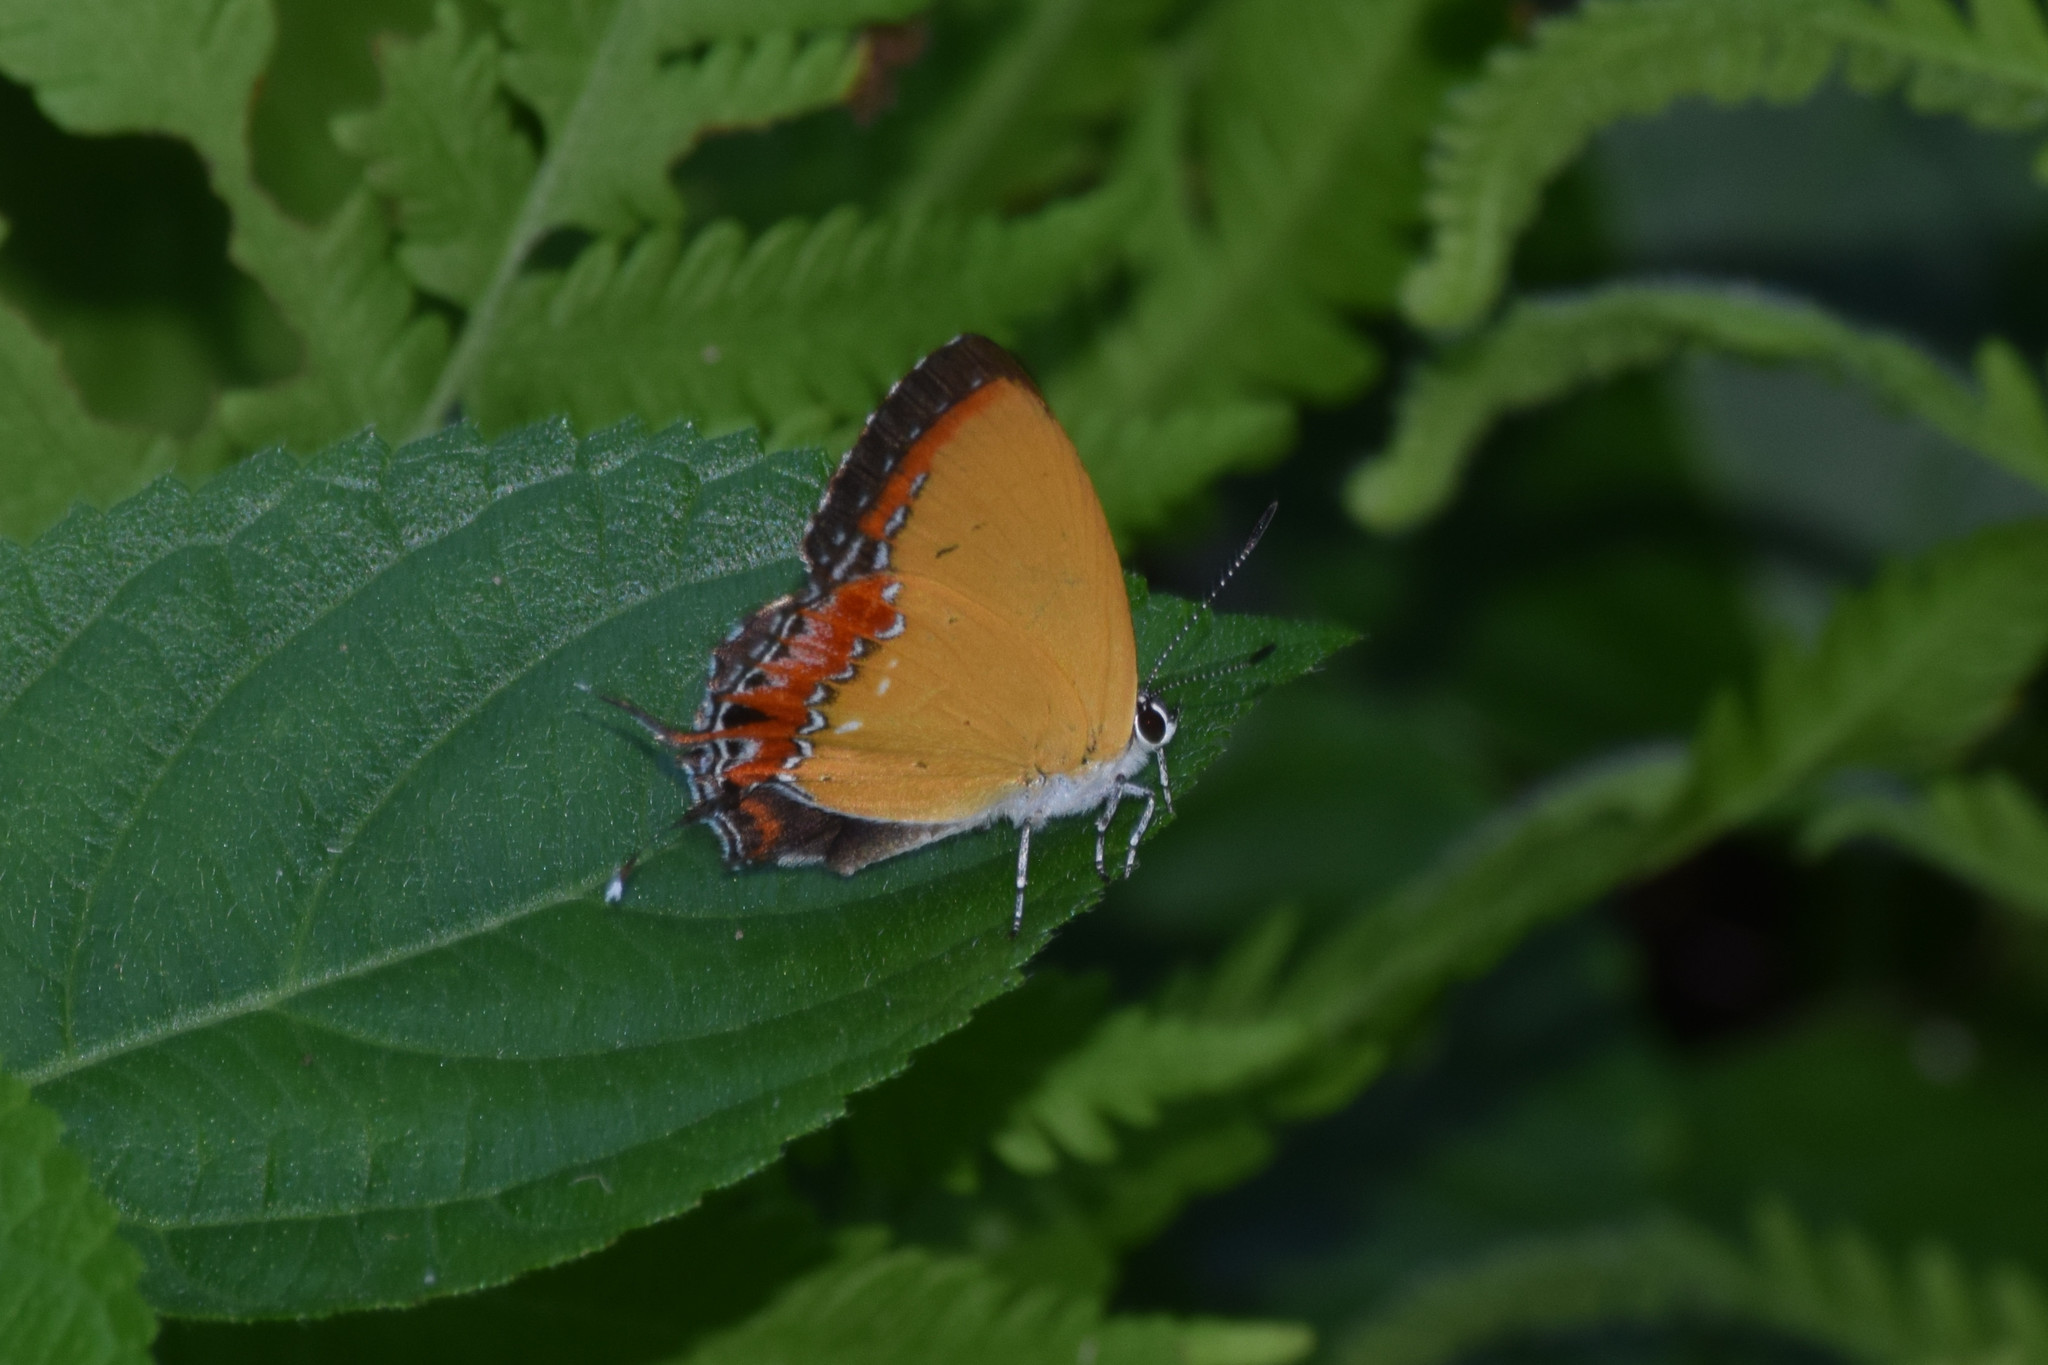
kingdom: Animalia
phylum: Arthropoda
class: Insecta
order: Lepidoptera
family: Lycaenidae
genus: Heliophorus
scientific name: Heliophorus epicles
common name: Purple sapphire
